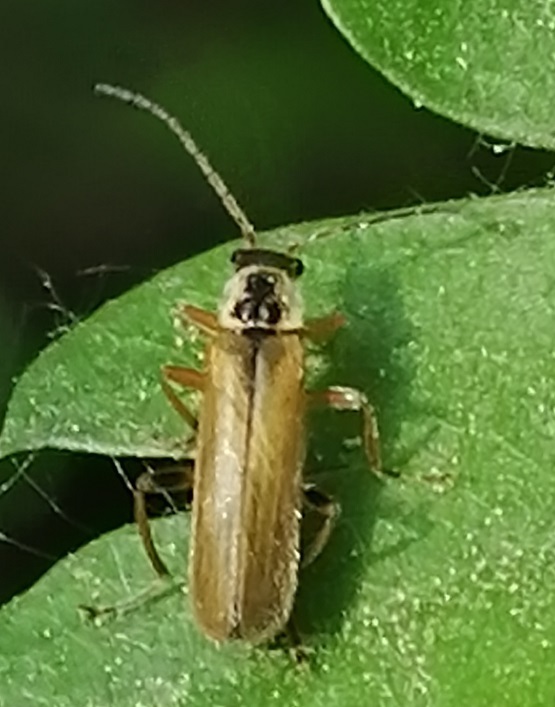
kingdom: Animalia
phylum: Arthropoda
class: Insecta
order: Coleoptera
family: Cantharidae
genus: Cantharis
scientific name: Cantharis decipiens
